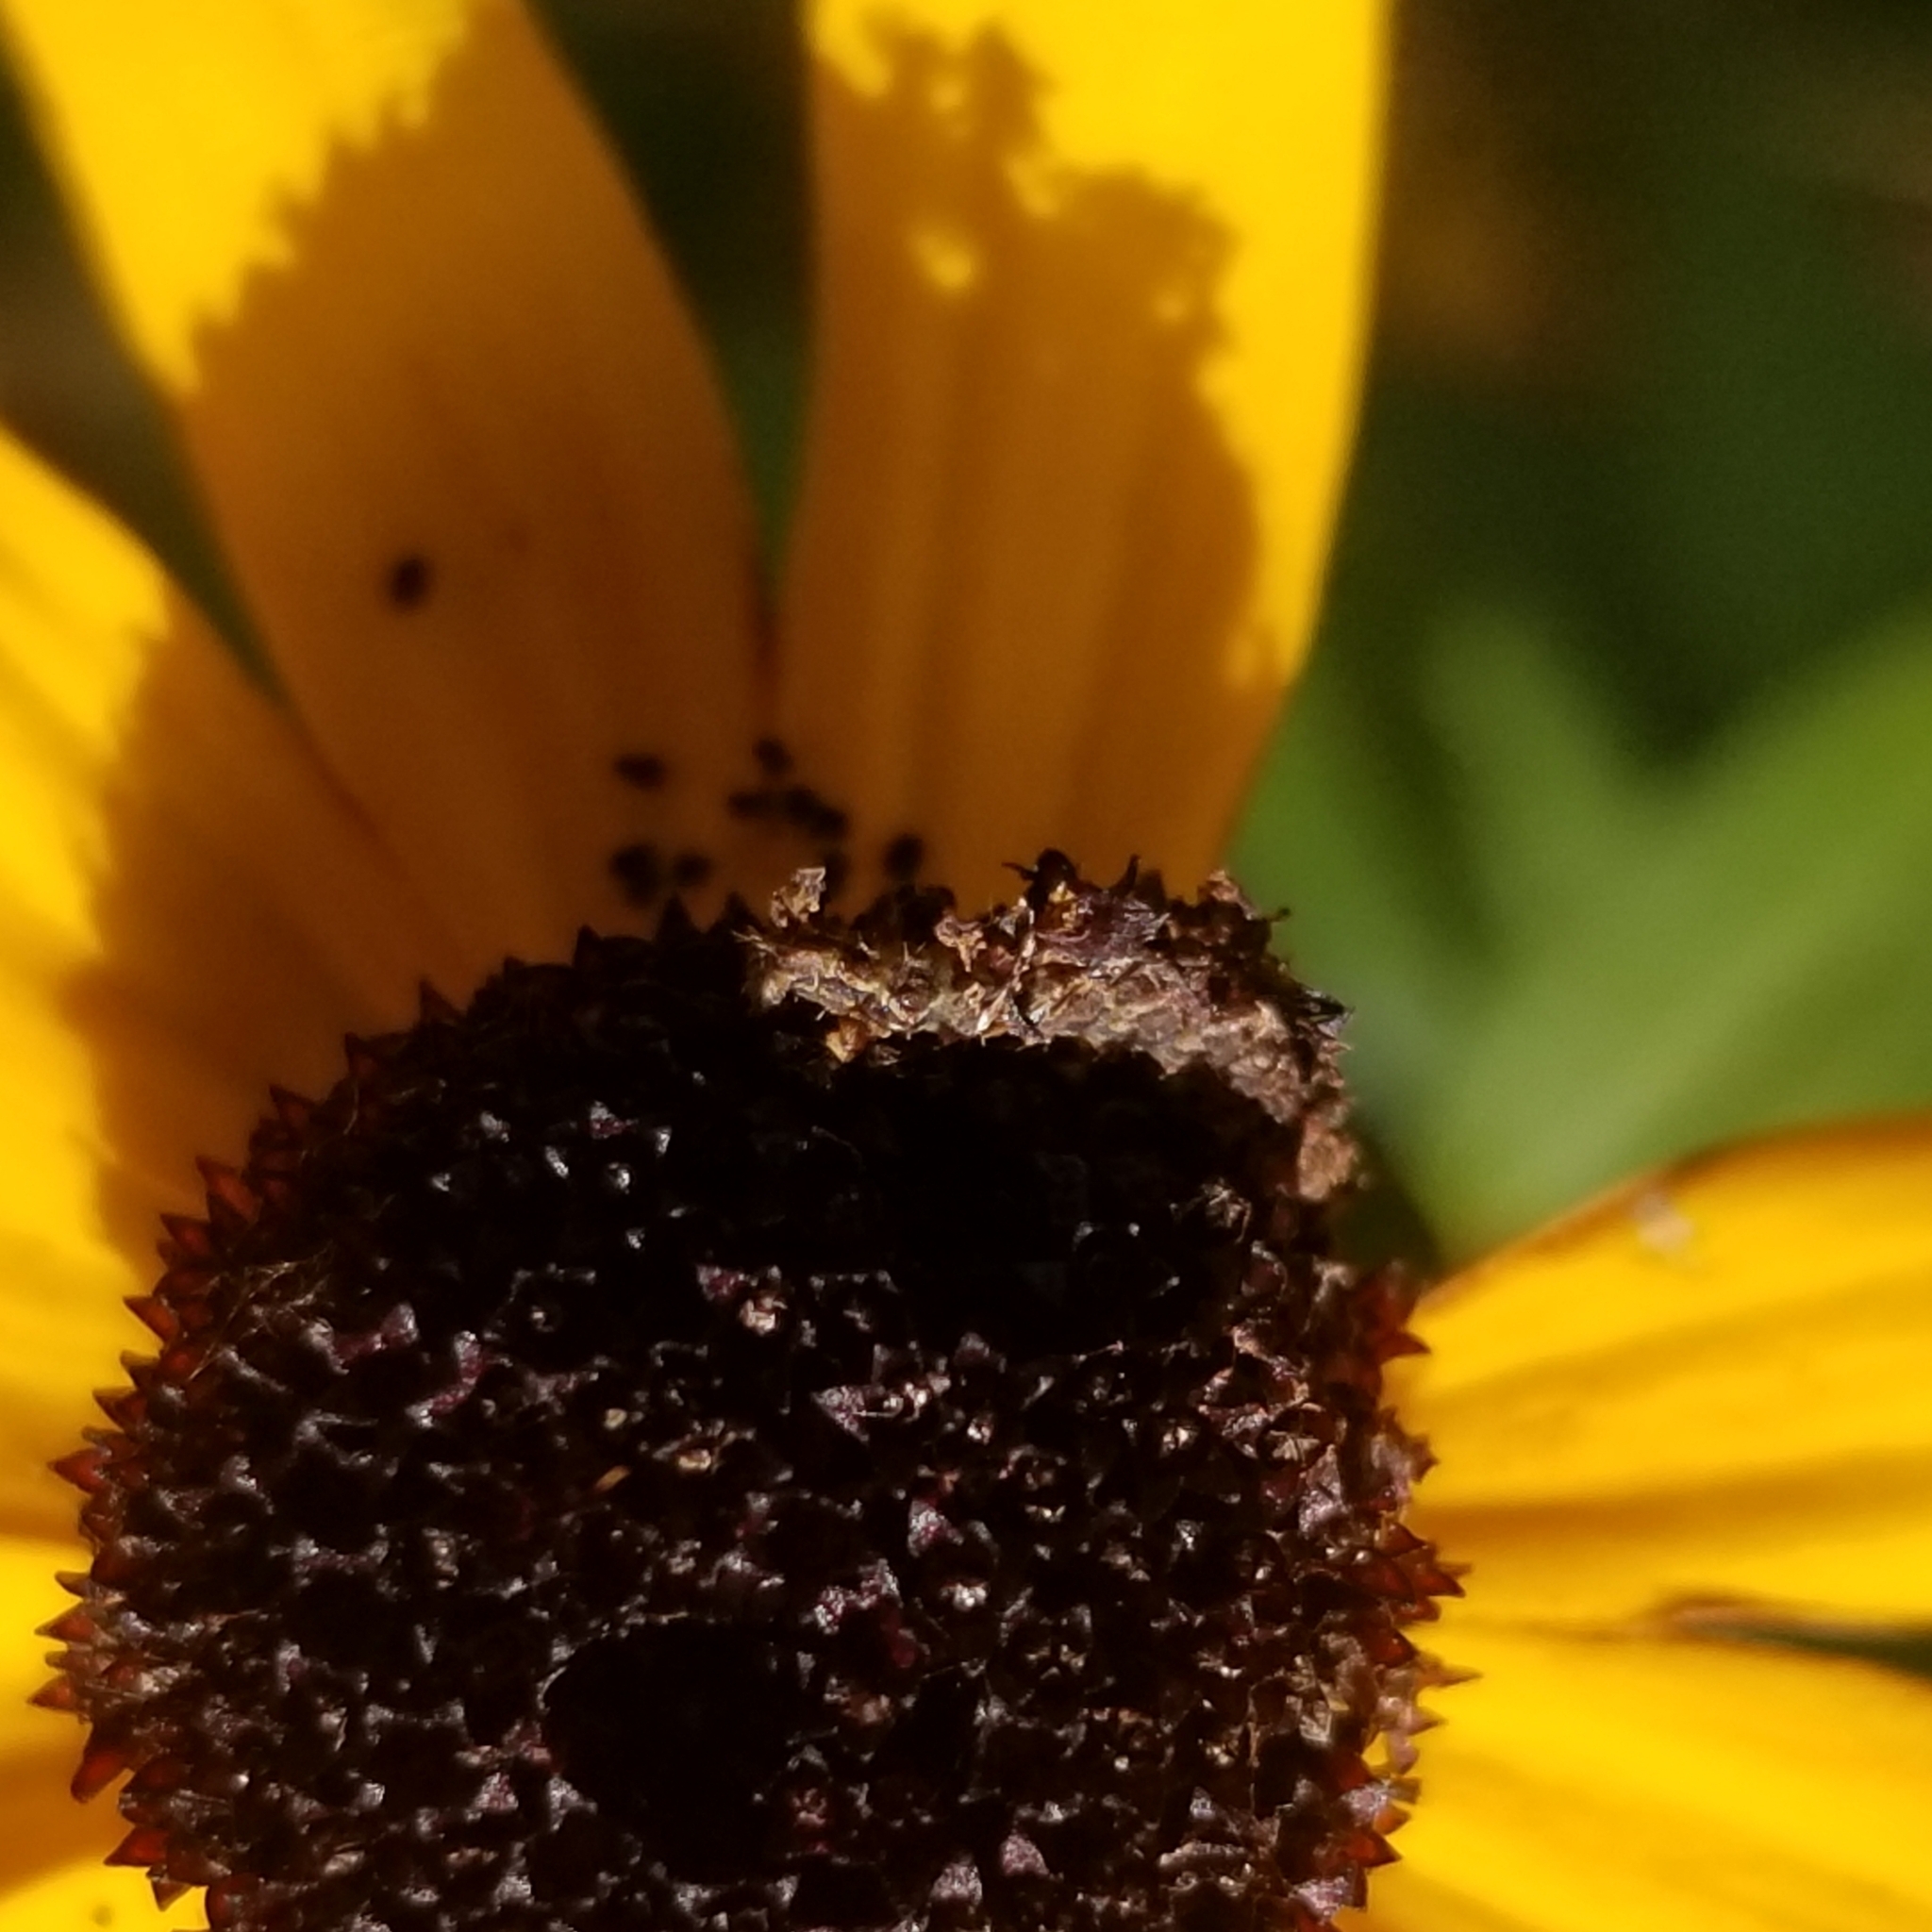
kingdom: Animalia
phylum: Arthropoda
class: Insecta
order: Lepidoptera
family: Geometridae
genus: Synchlora
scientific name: Synchlora aerata
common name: Wavy-lined emerald
